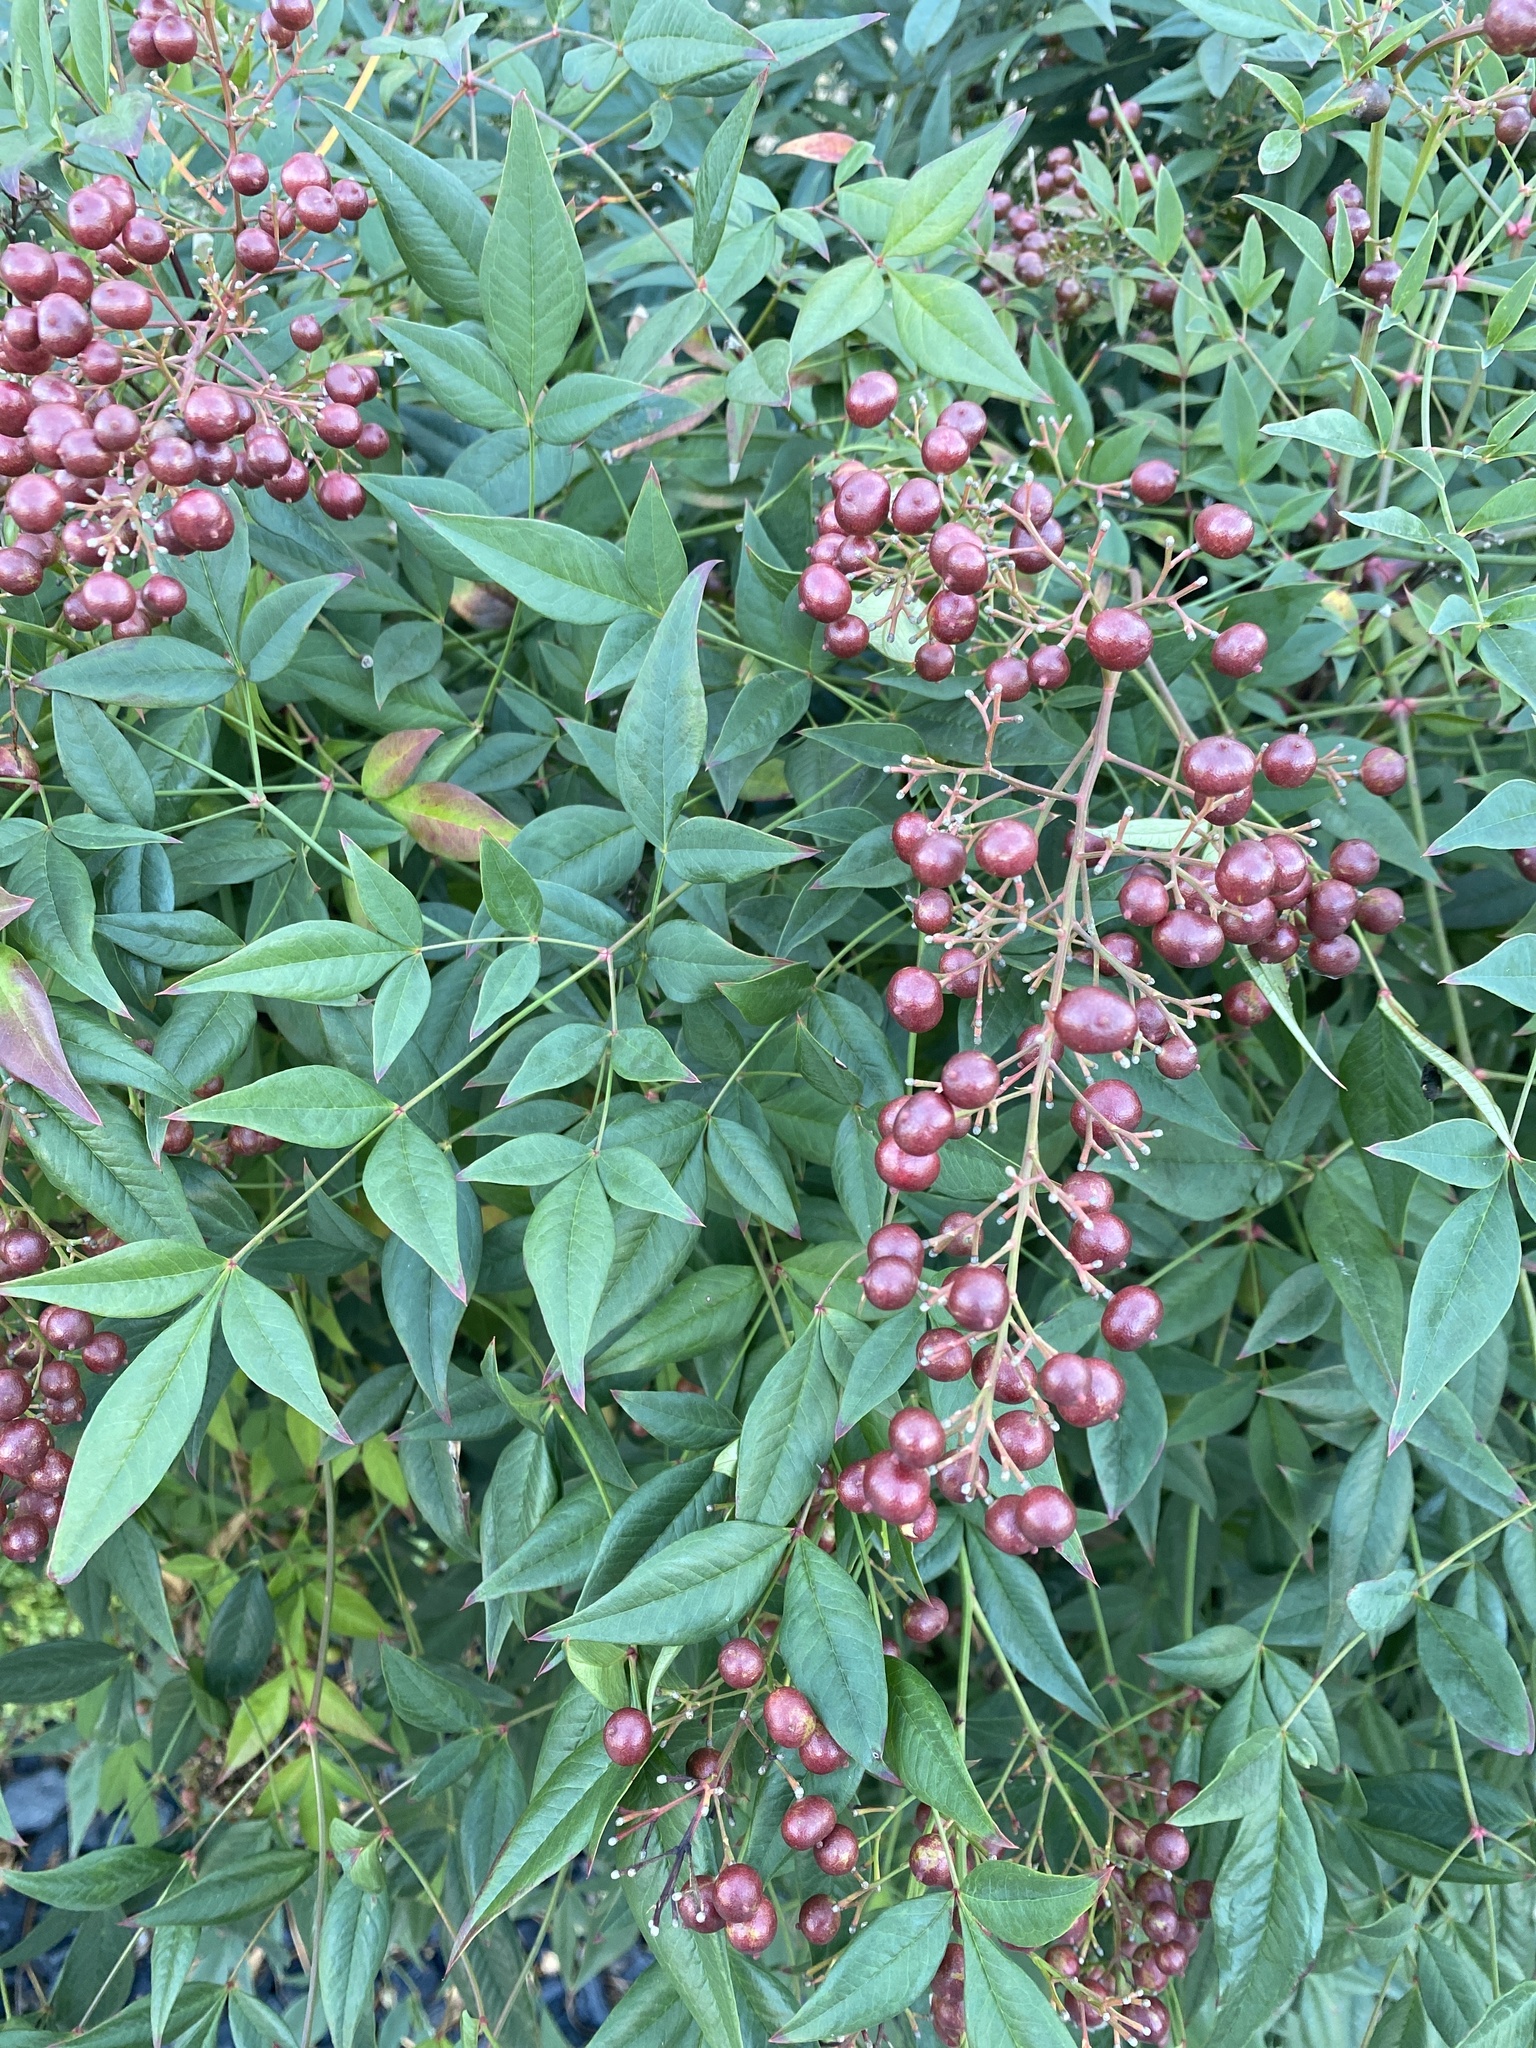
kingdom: Plantae
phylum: Tracheophyta
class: Magnoliopsida
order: Ranunculales
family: Berberidaceae
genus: Nandina
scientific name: Nandina domestica
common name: Sacred bamboo
